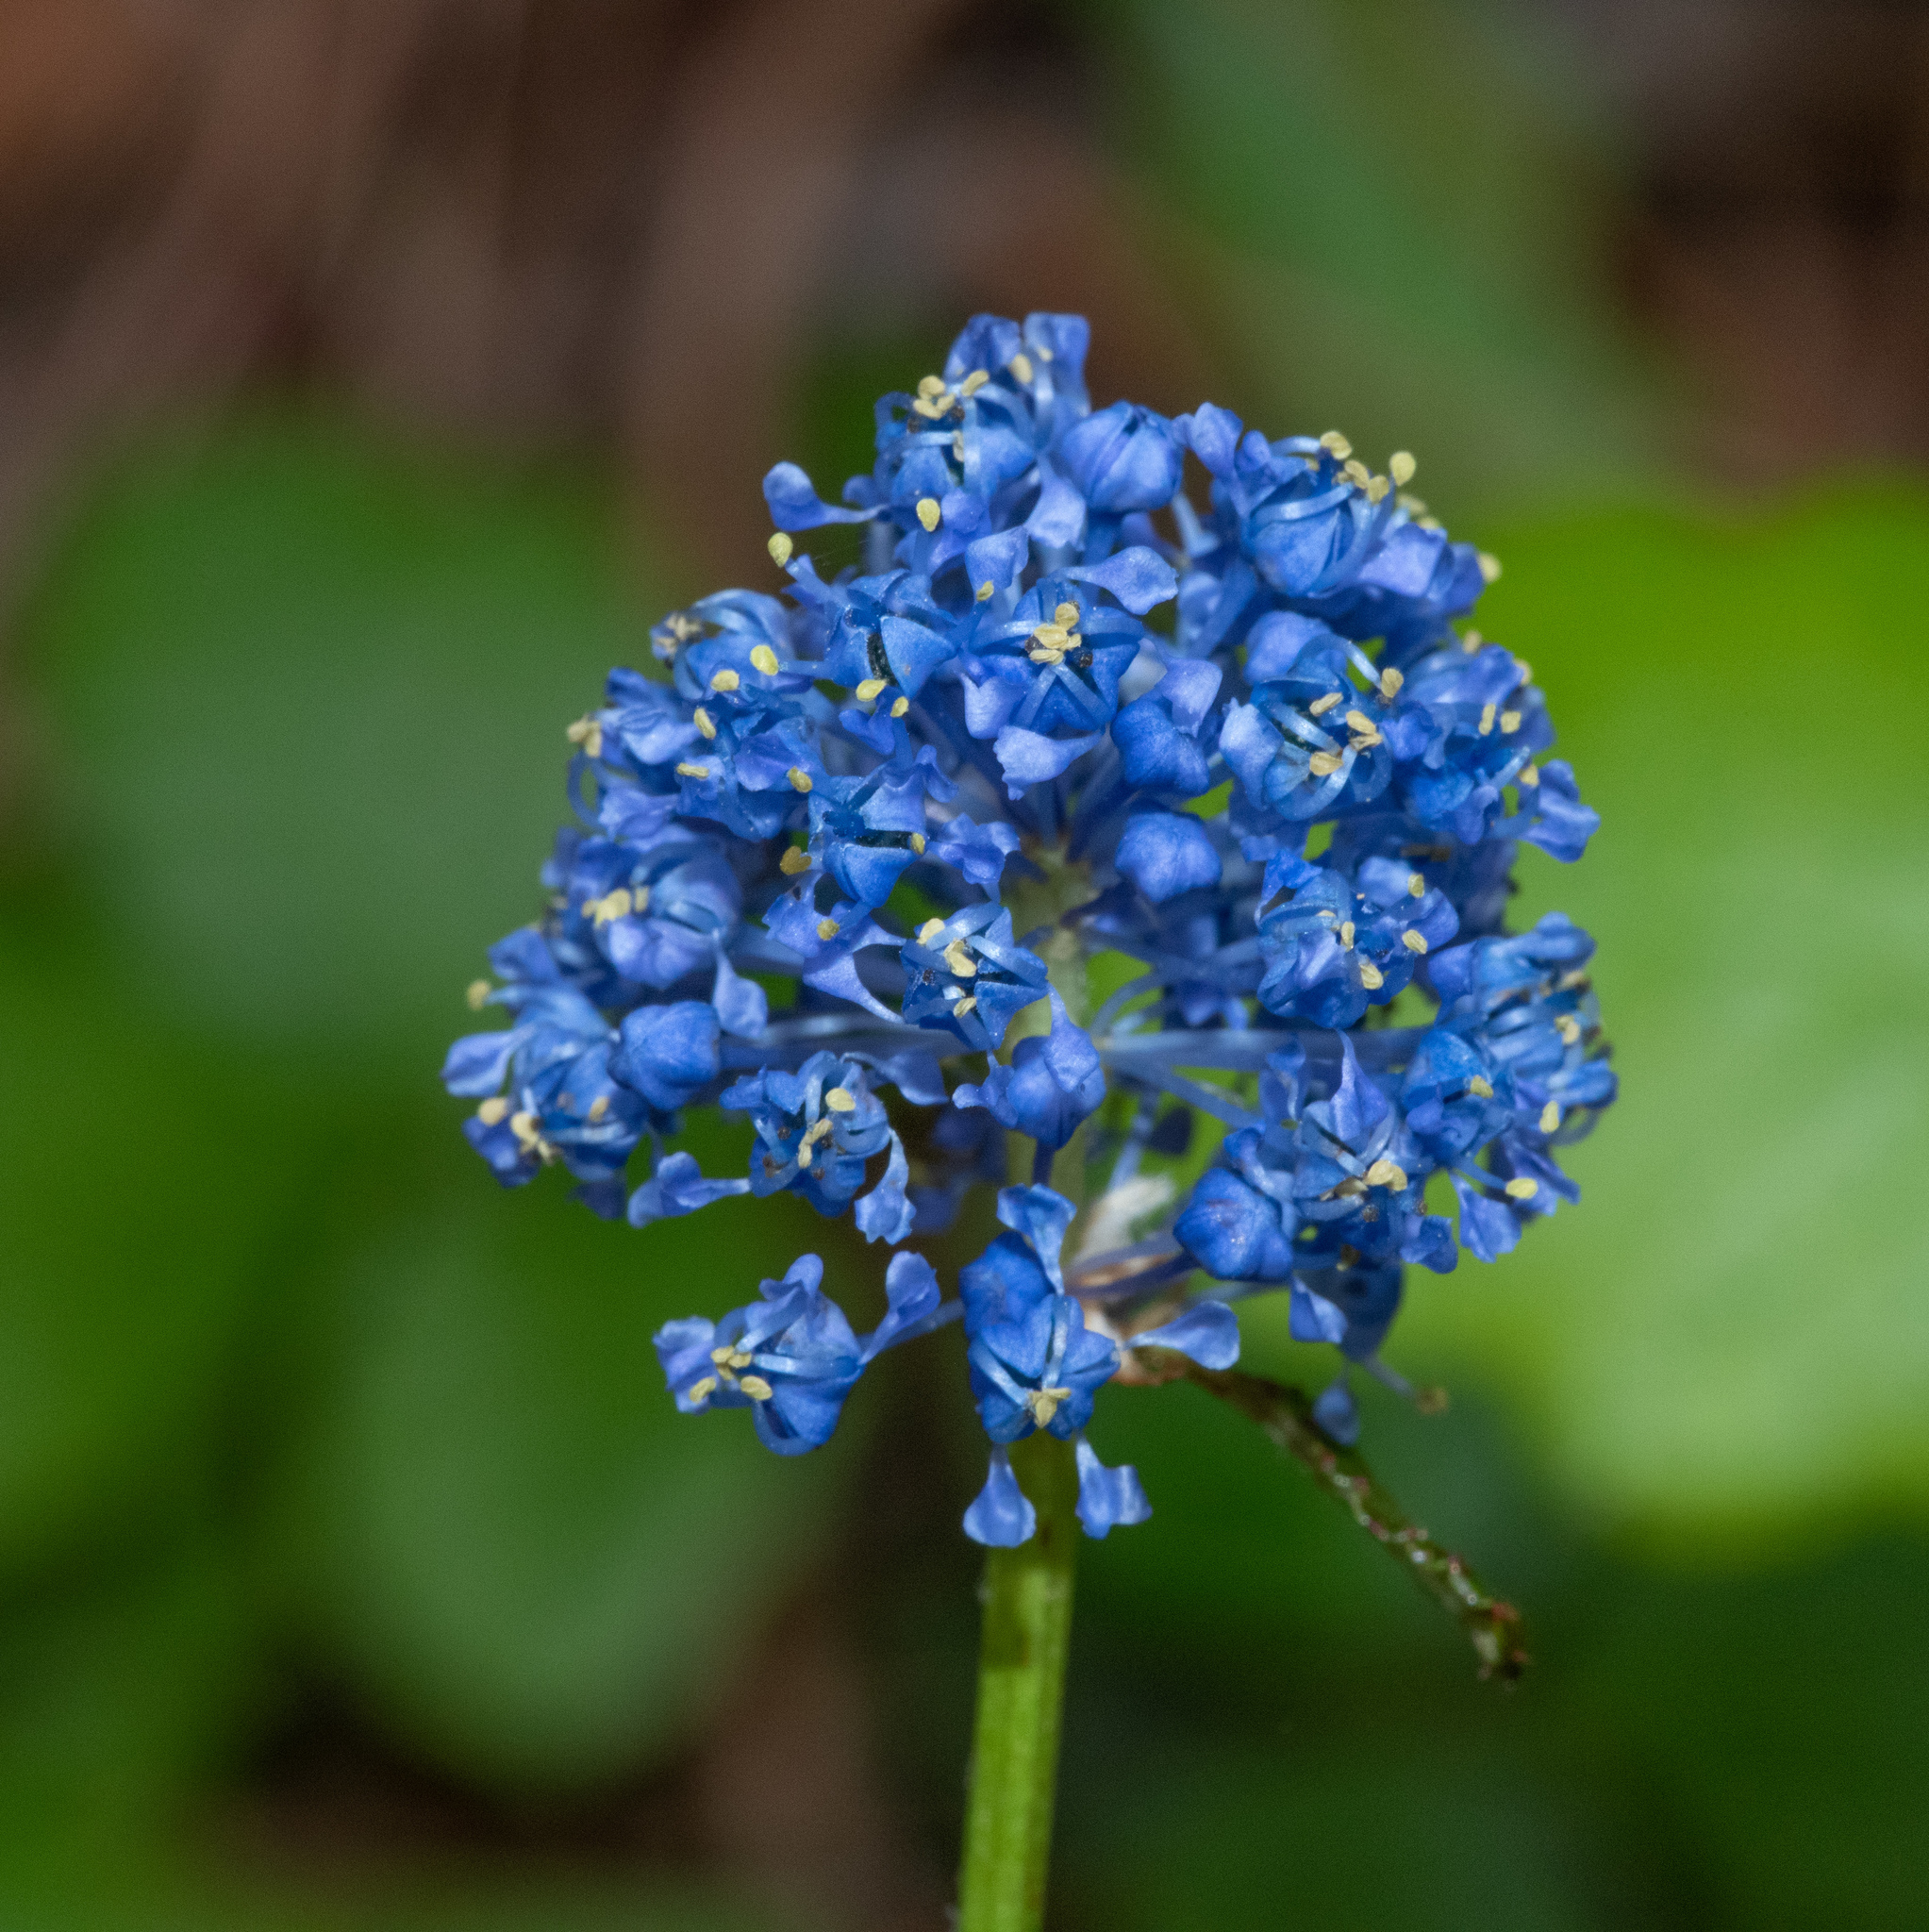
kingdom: Plantae
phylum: Tracheophyta
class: Magnoliopsida
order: Rosales
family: Rhamnaceae
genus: Ceanothus
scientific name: Ceanothus thyrsiflorus
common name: California-lilac
